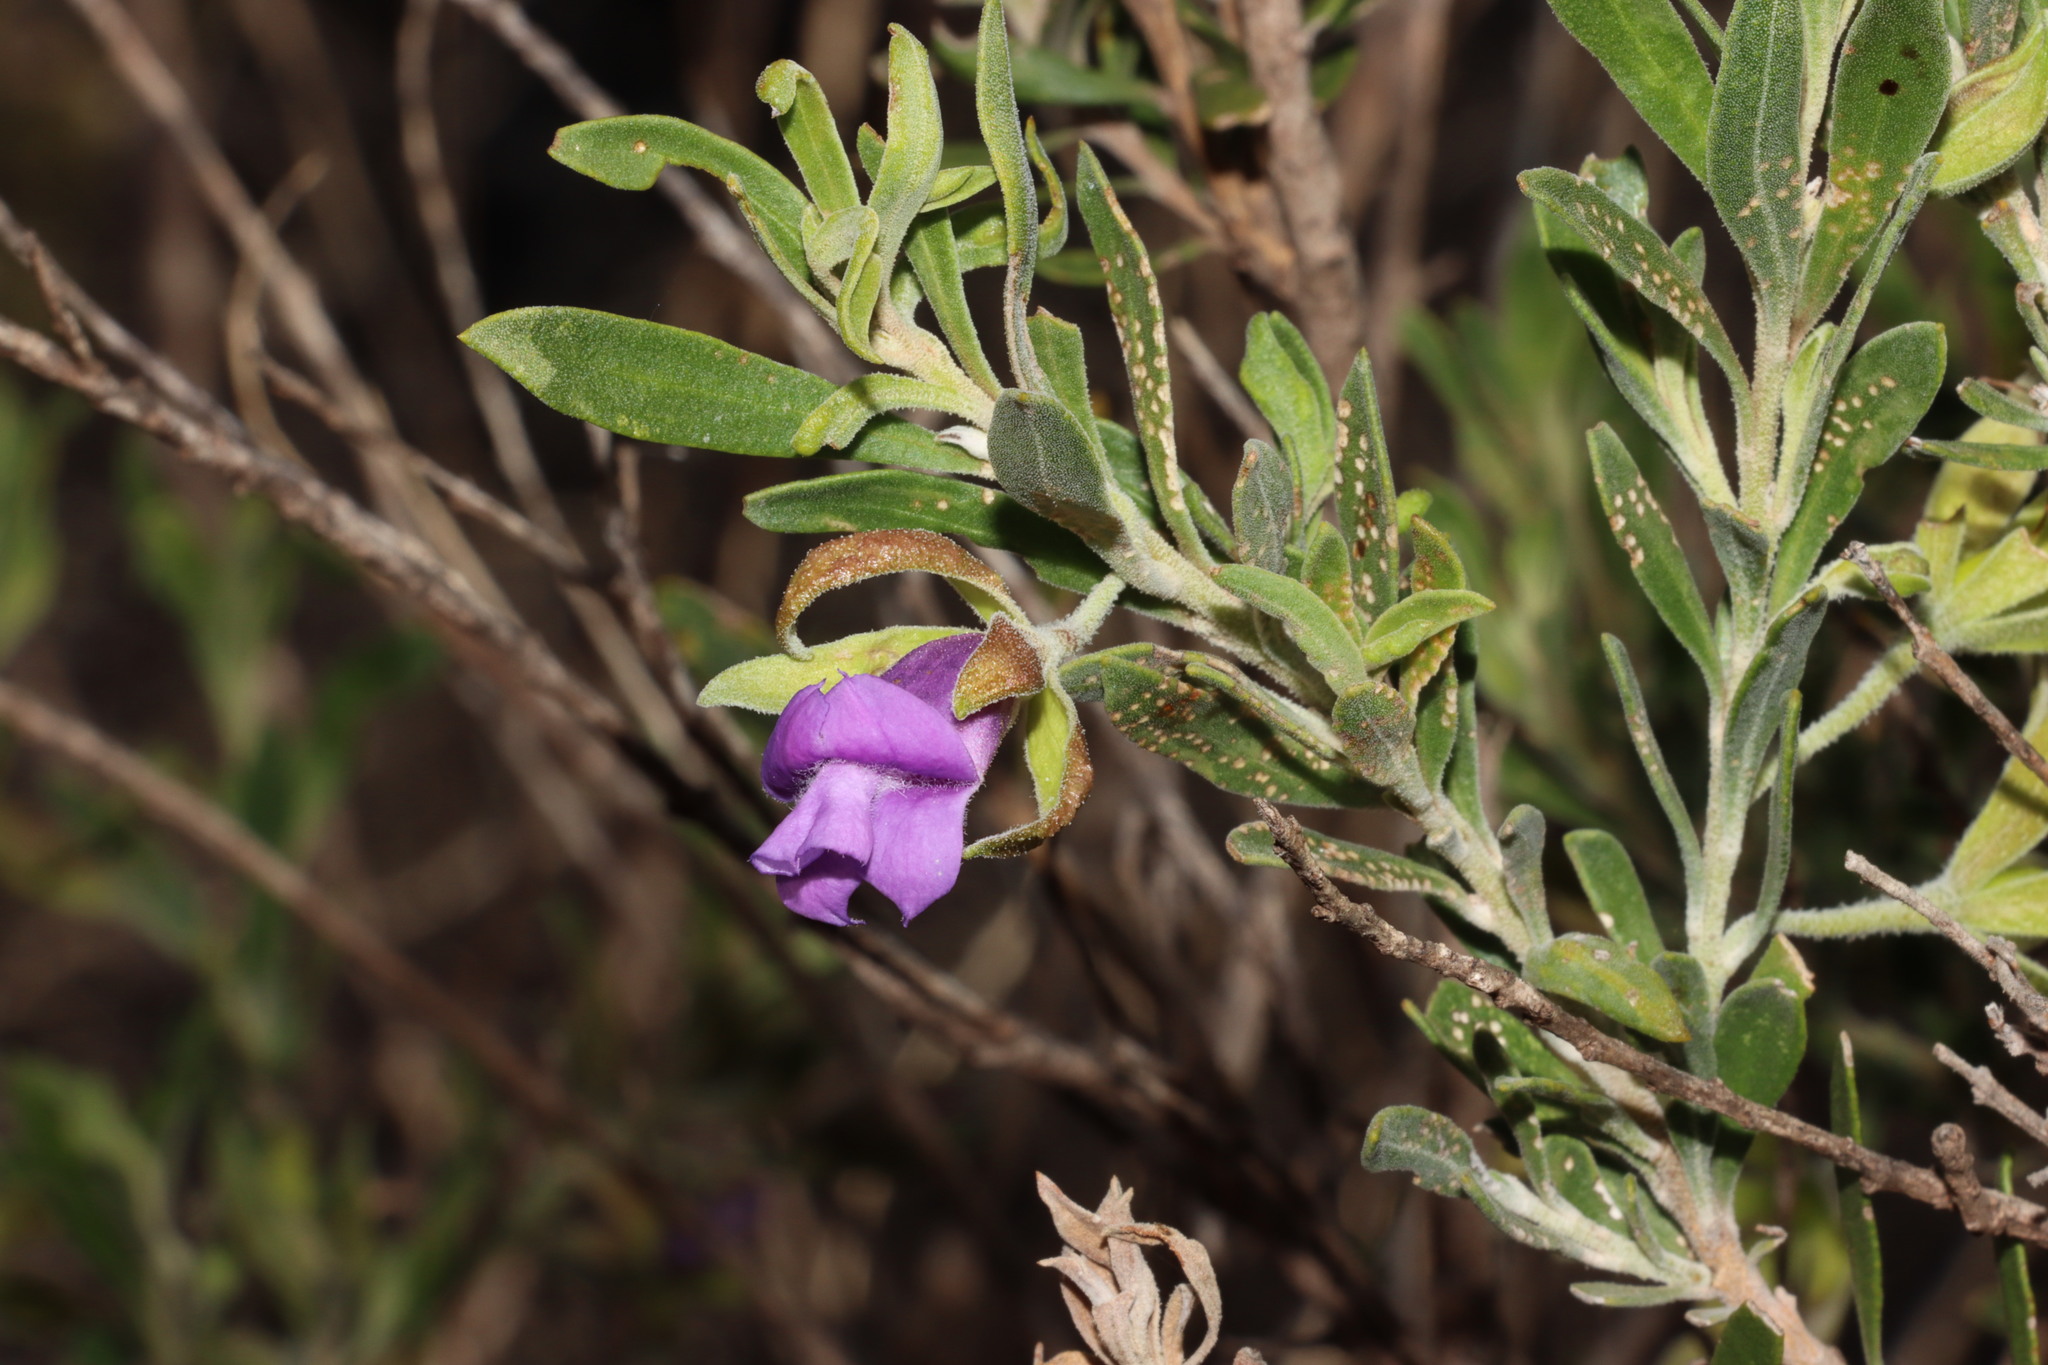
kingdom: Plantae
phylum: Tracheophyta
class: Magnoliopsida
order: Lamiales
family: Scrophulariaceae
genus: Eremophila
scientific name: Eremophila occidens
